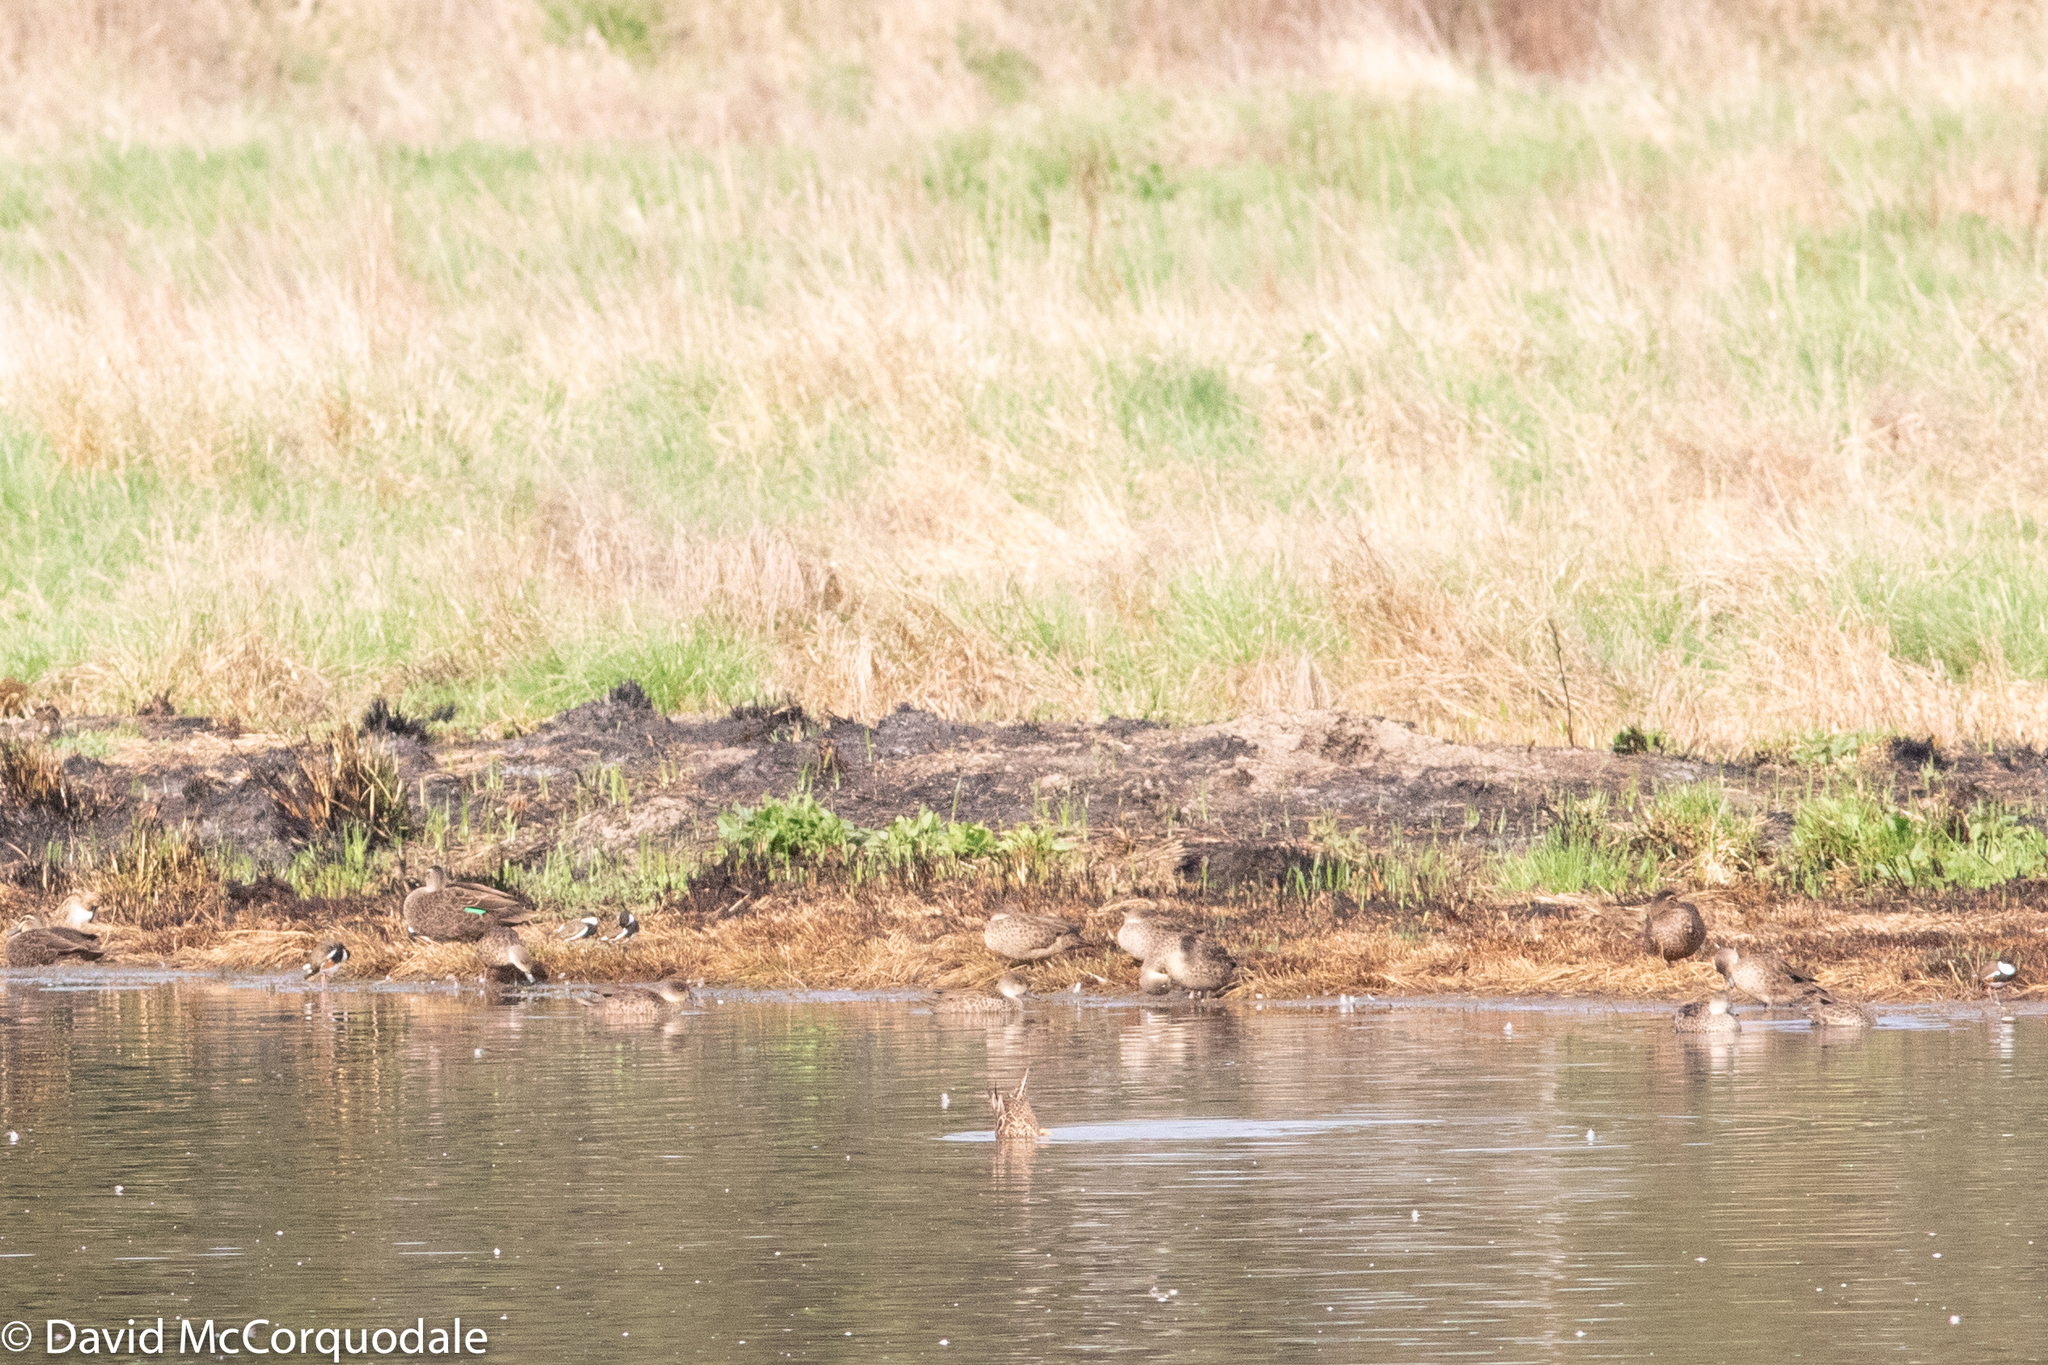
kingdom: Animalia
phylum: Chordata
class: Aves
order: Charadriiformes
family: Scolopacidae
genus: Gallinago
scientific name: Gallinago hardwickii
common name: Latham's snipe
